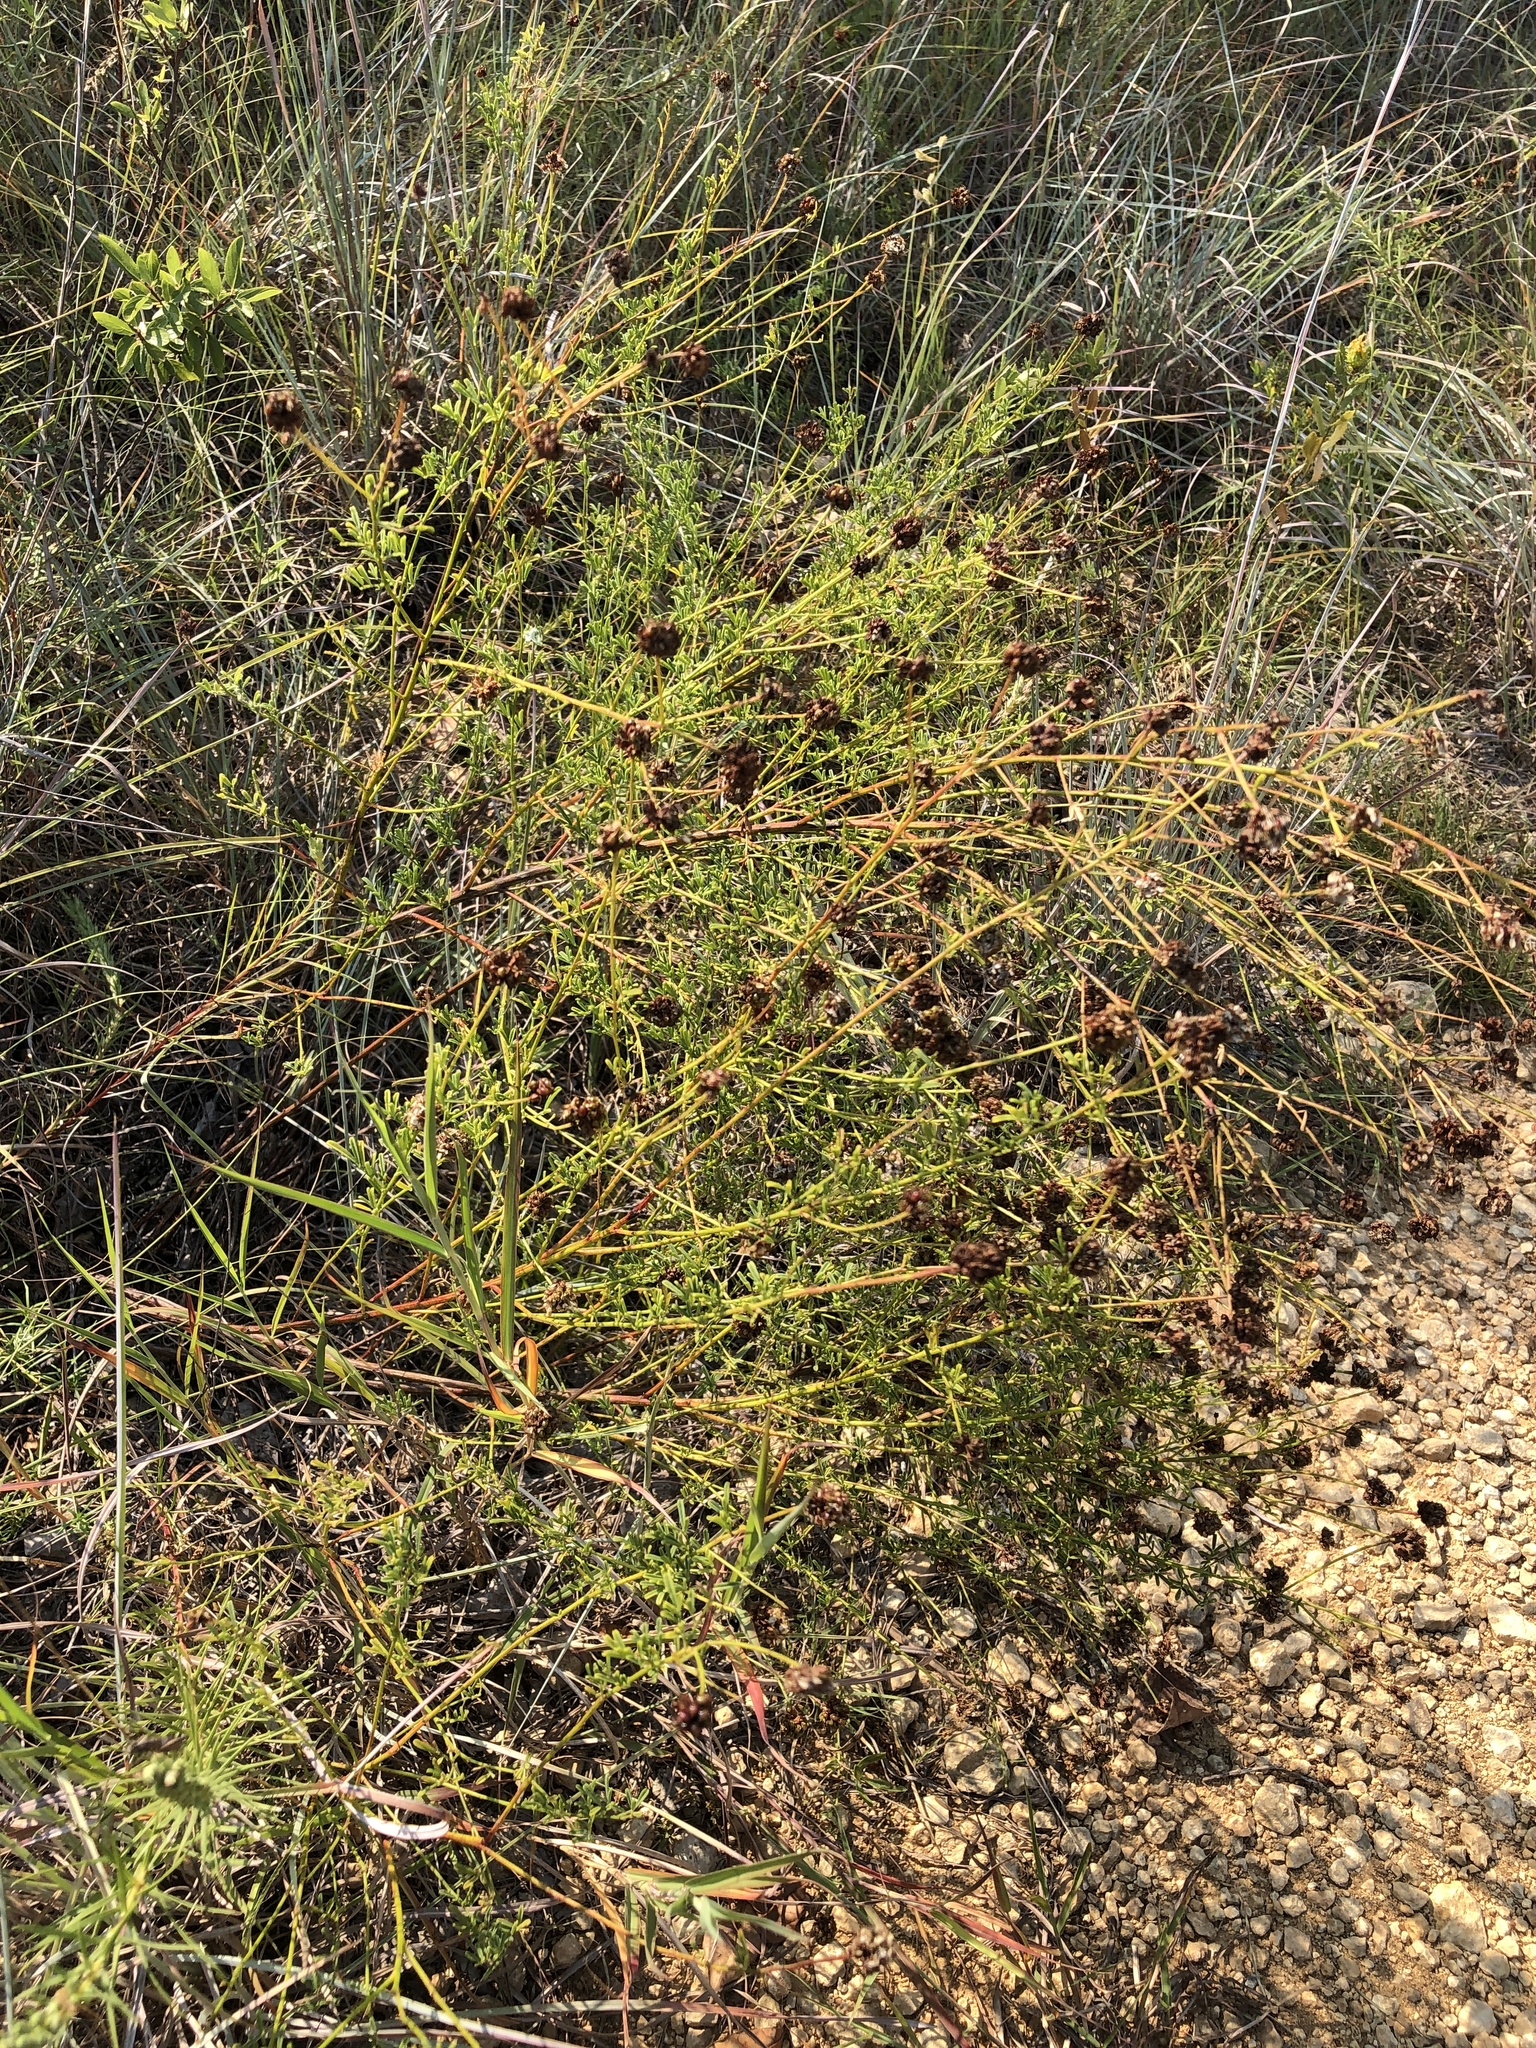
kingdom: Plantae
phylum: Tracheophyta
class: Magnoliopsida
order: Fabales
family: Fabaceae
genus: Dalea
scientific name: Dalea multiflora
